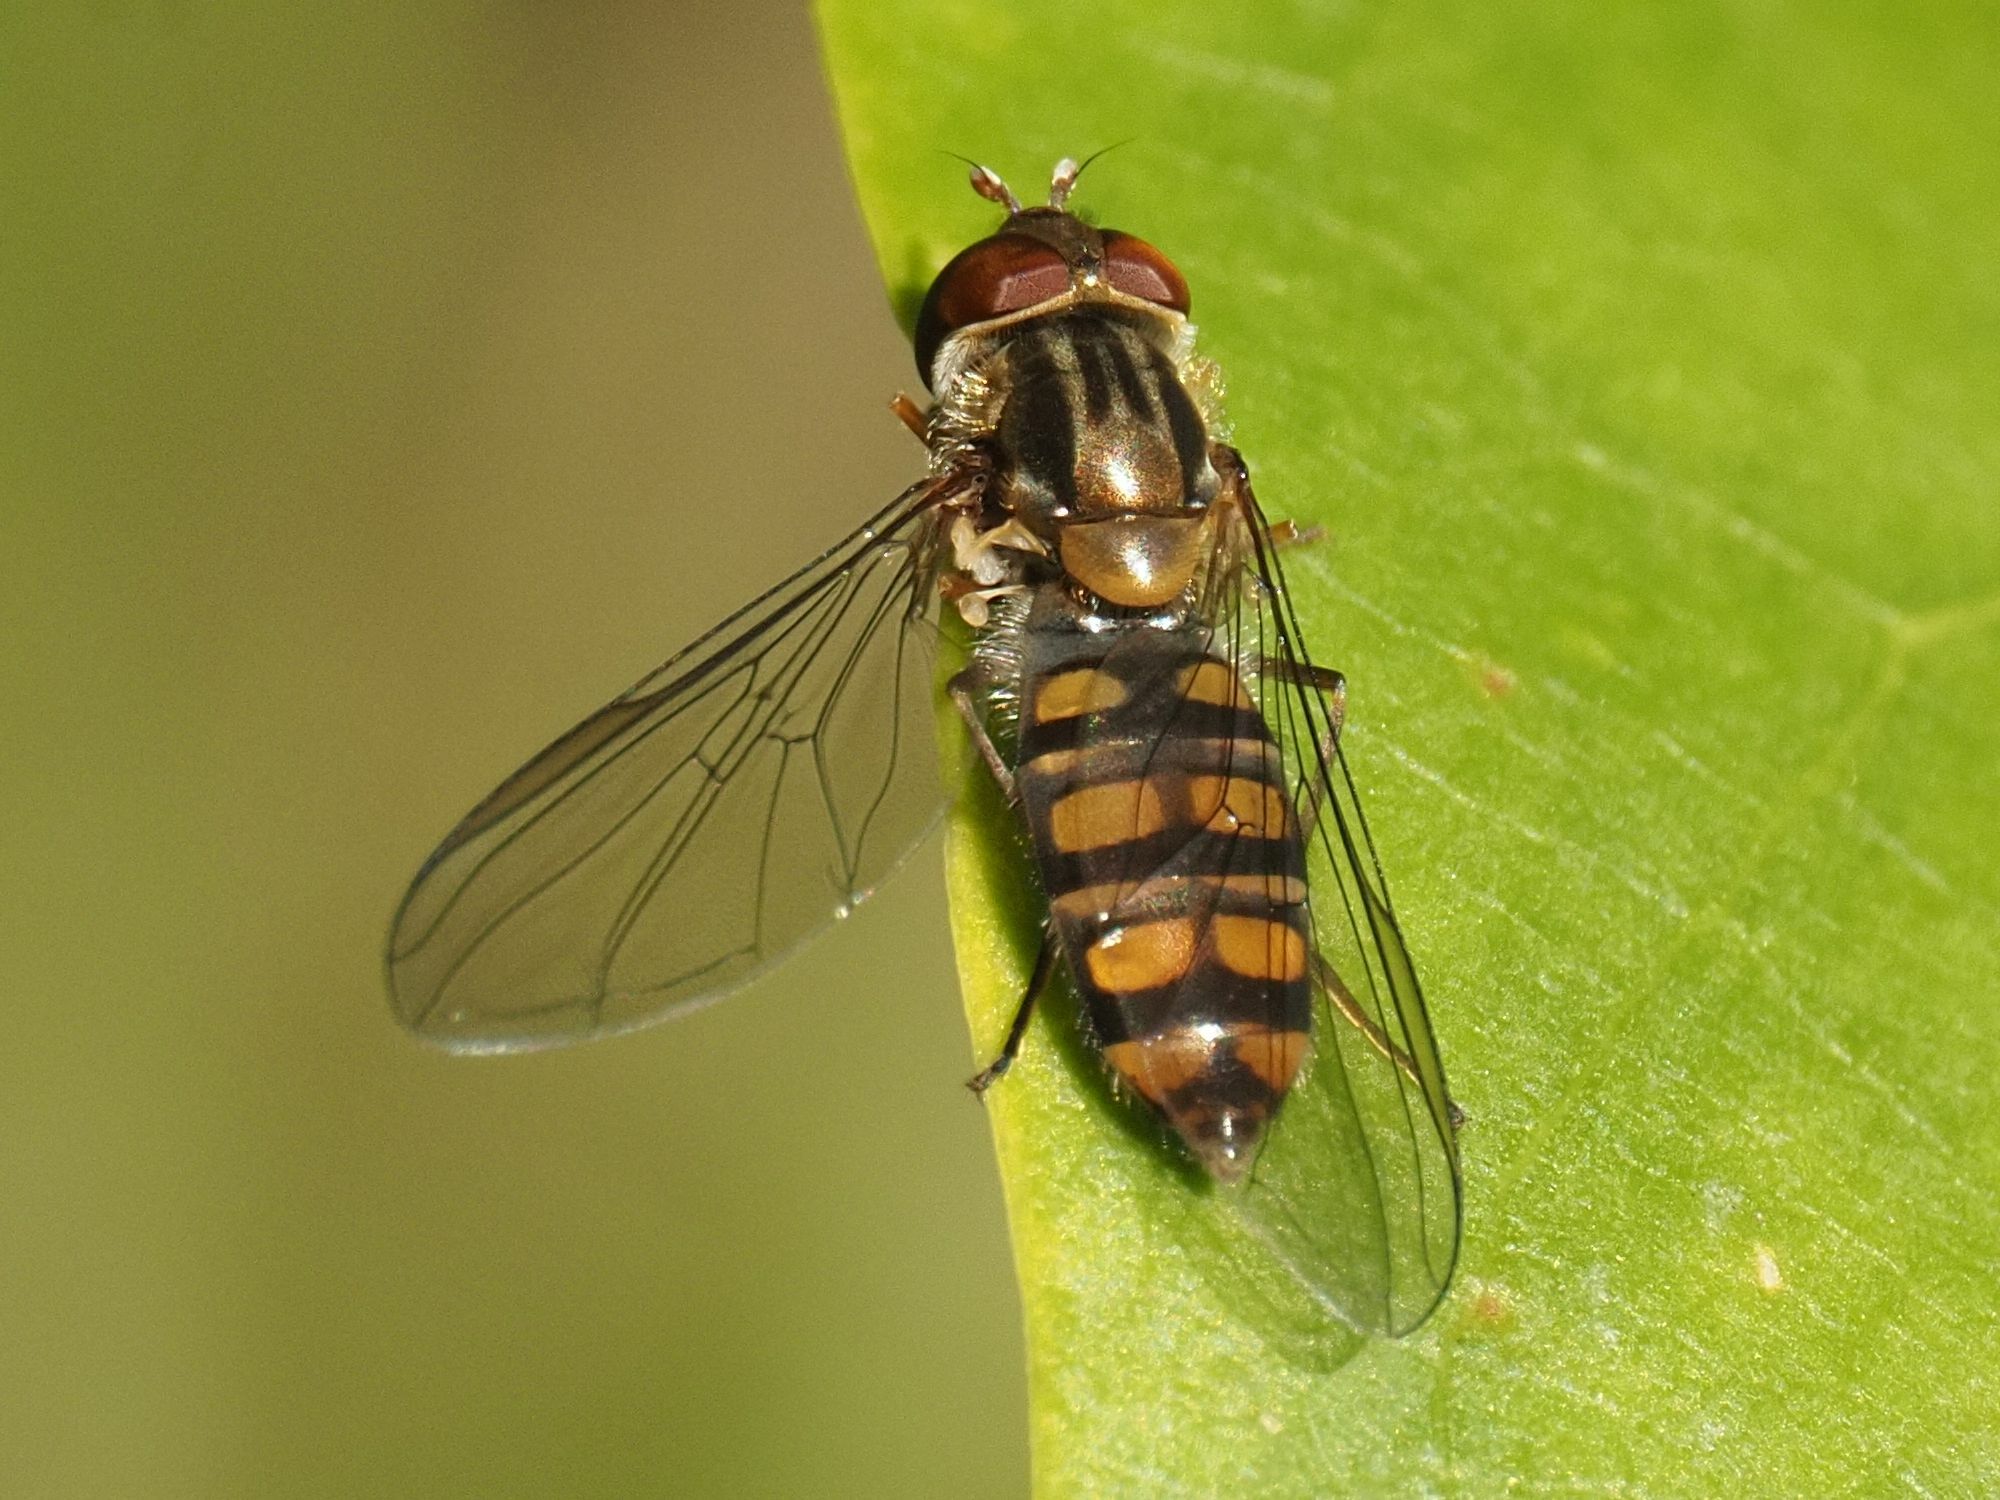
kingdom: Animalia
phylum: Arthropoda
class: Insecta
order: Diptera
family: Syrphidae
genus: Episyrphus
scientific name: Episyrphus balteatus
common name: Marmalade hoverfly
